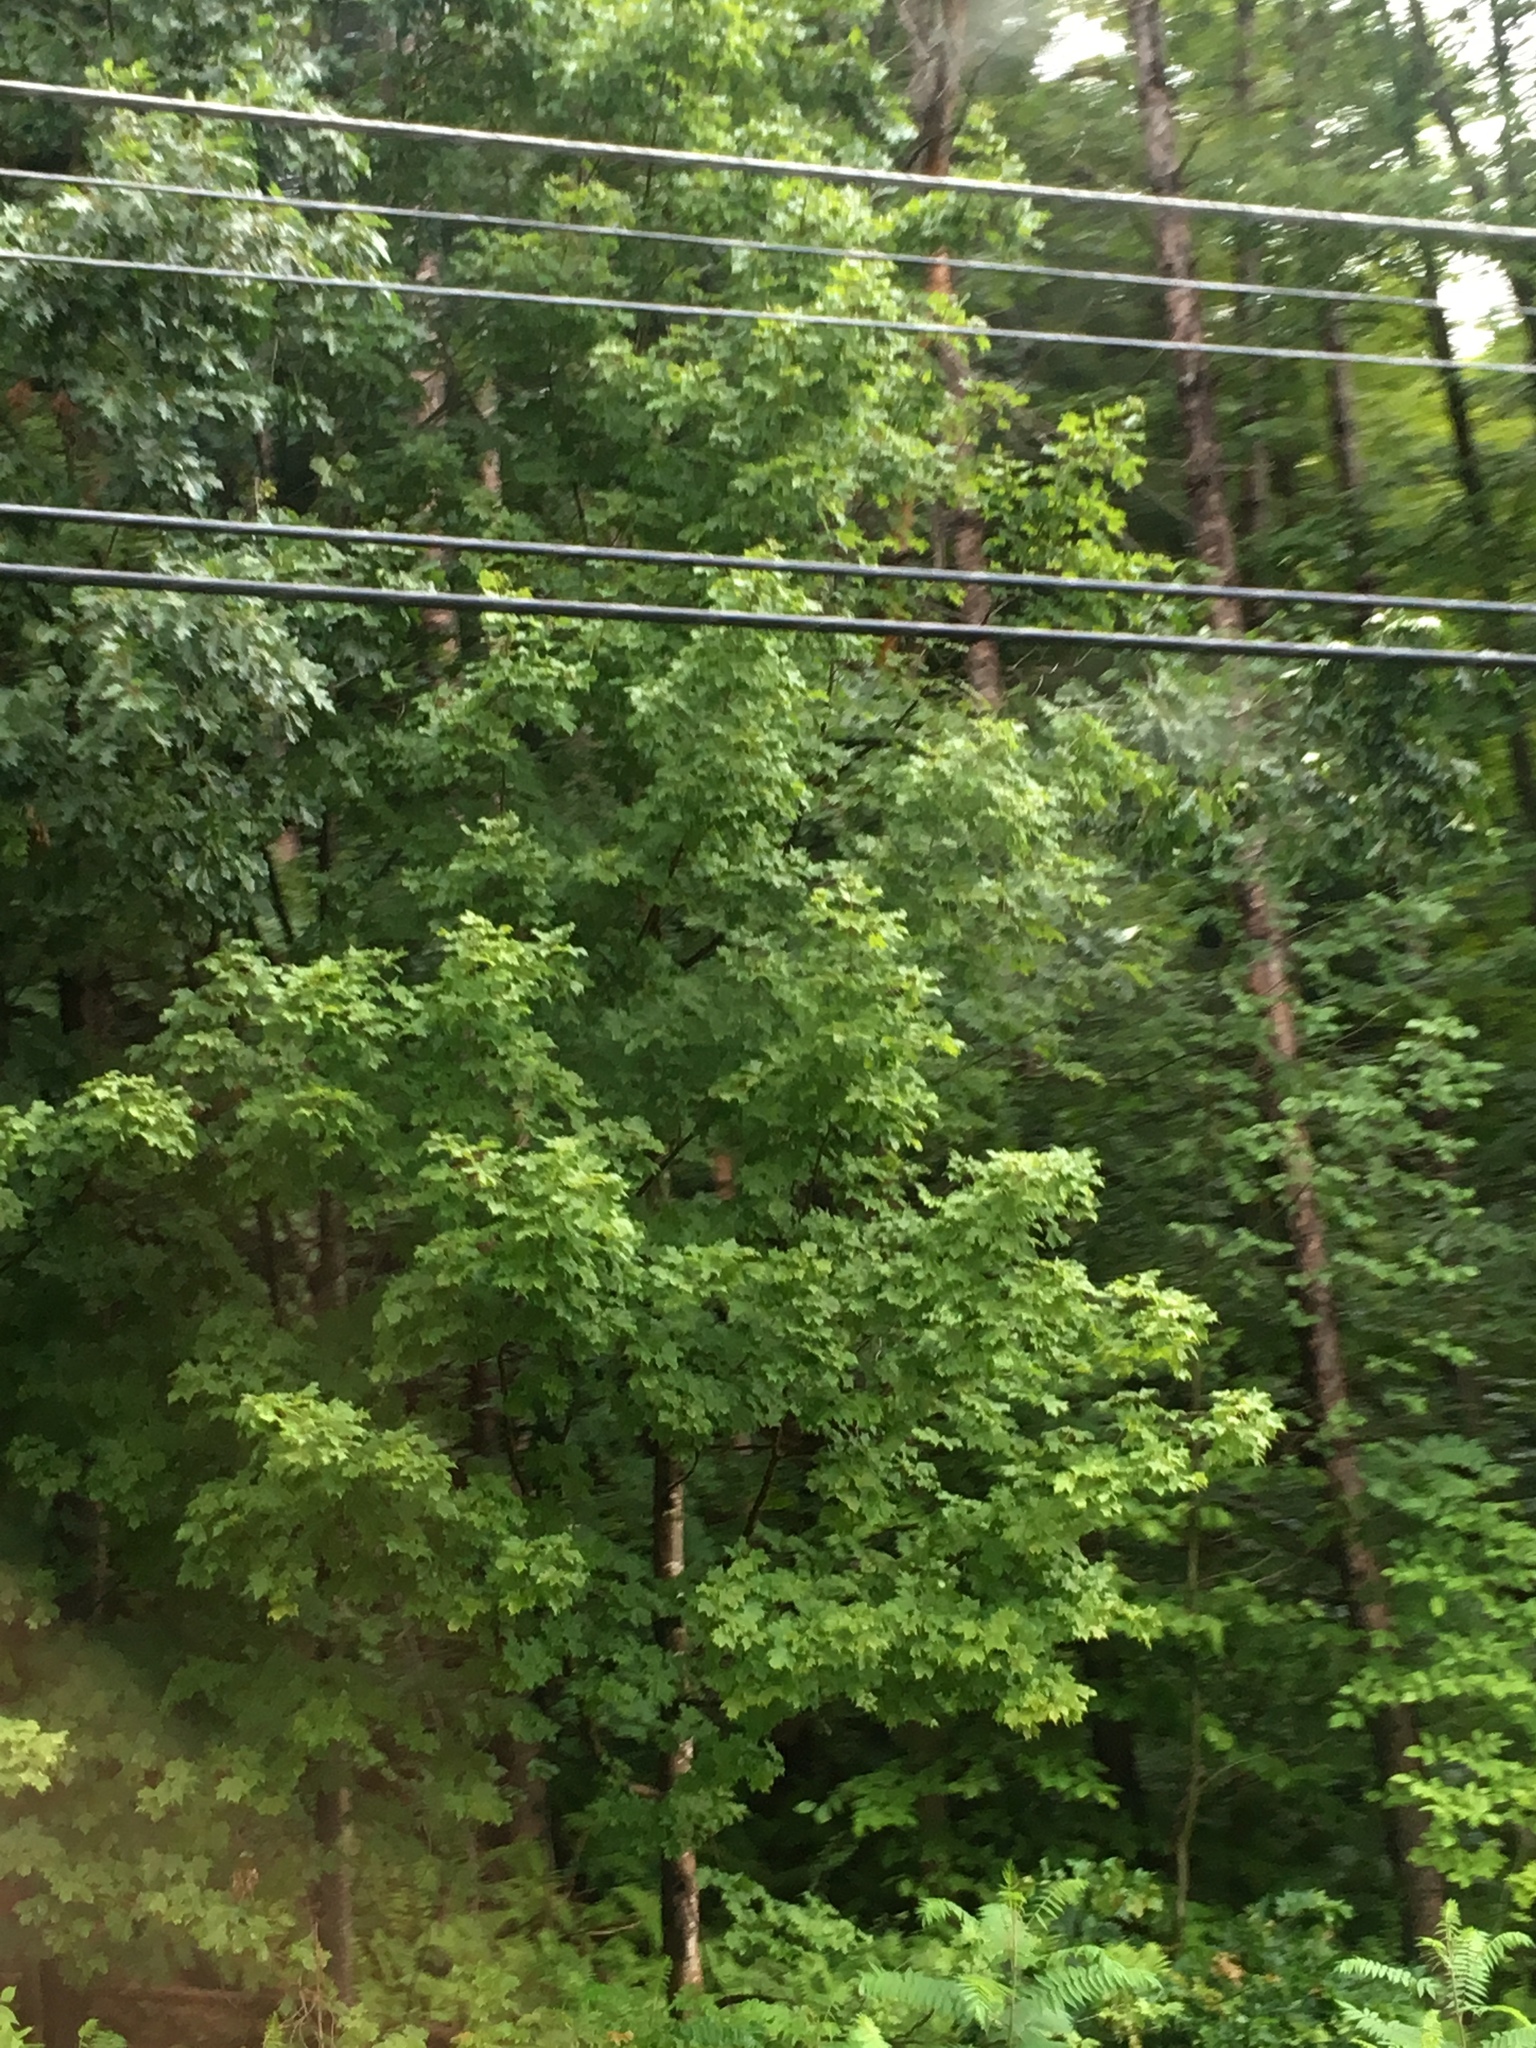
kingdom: Plantae
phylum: Tracheophyta
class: Magnoliopsida
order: Fagales
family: Fagaceae
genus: Quercus
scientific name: Quercus rubra
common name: Red oak
